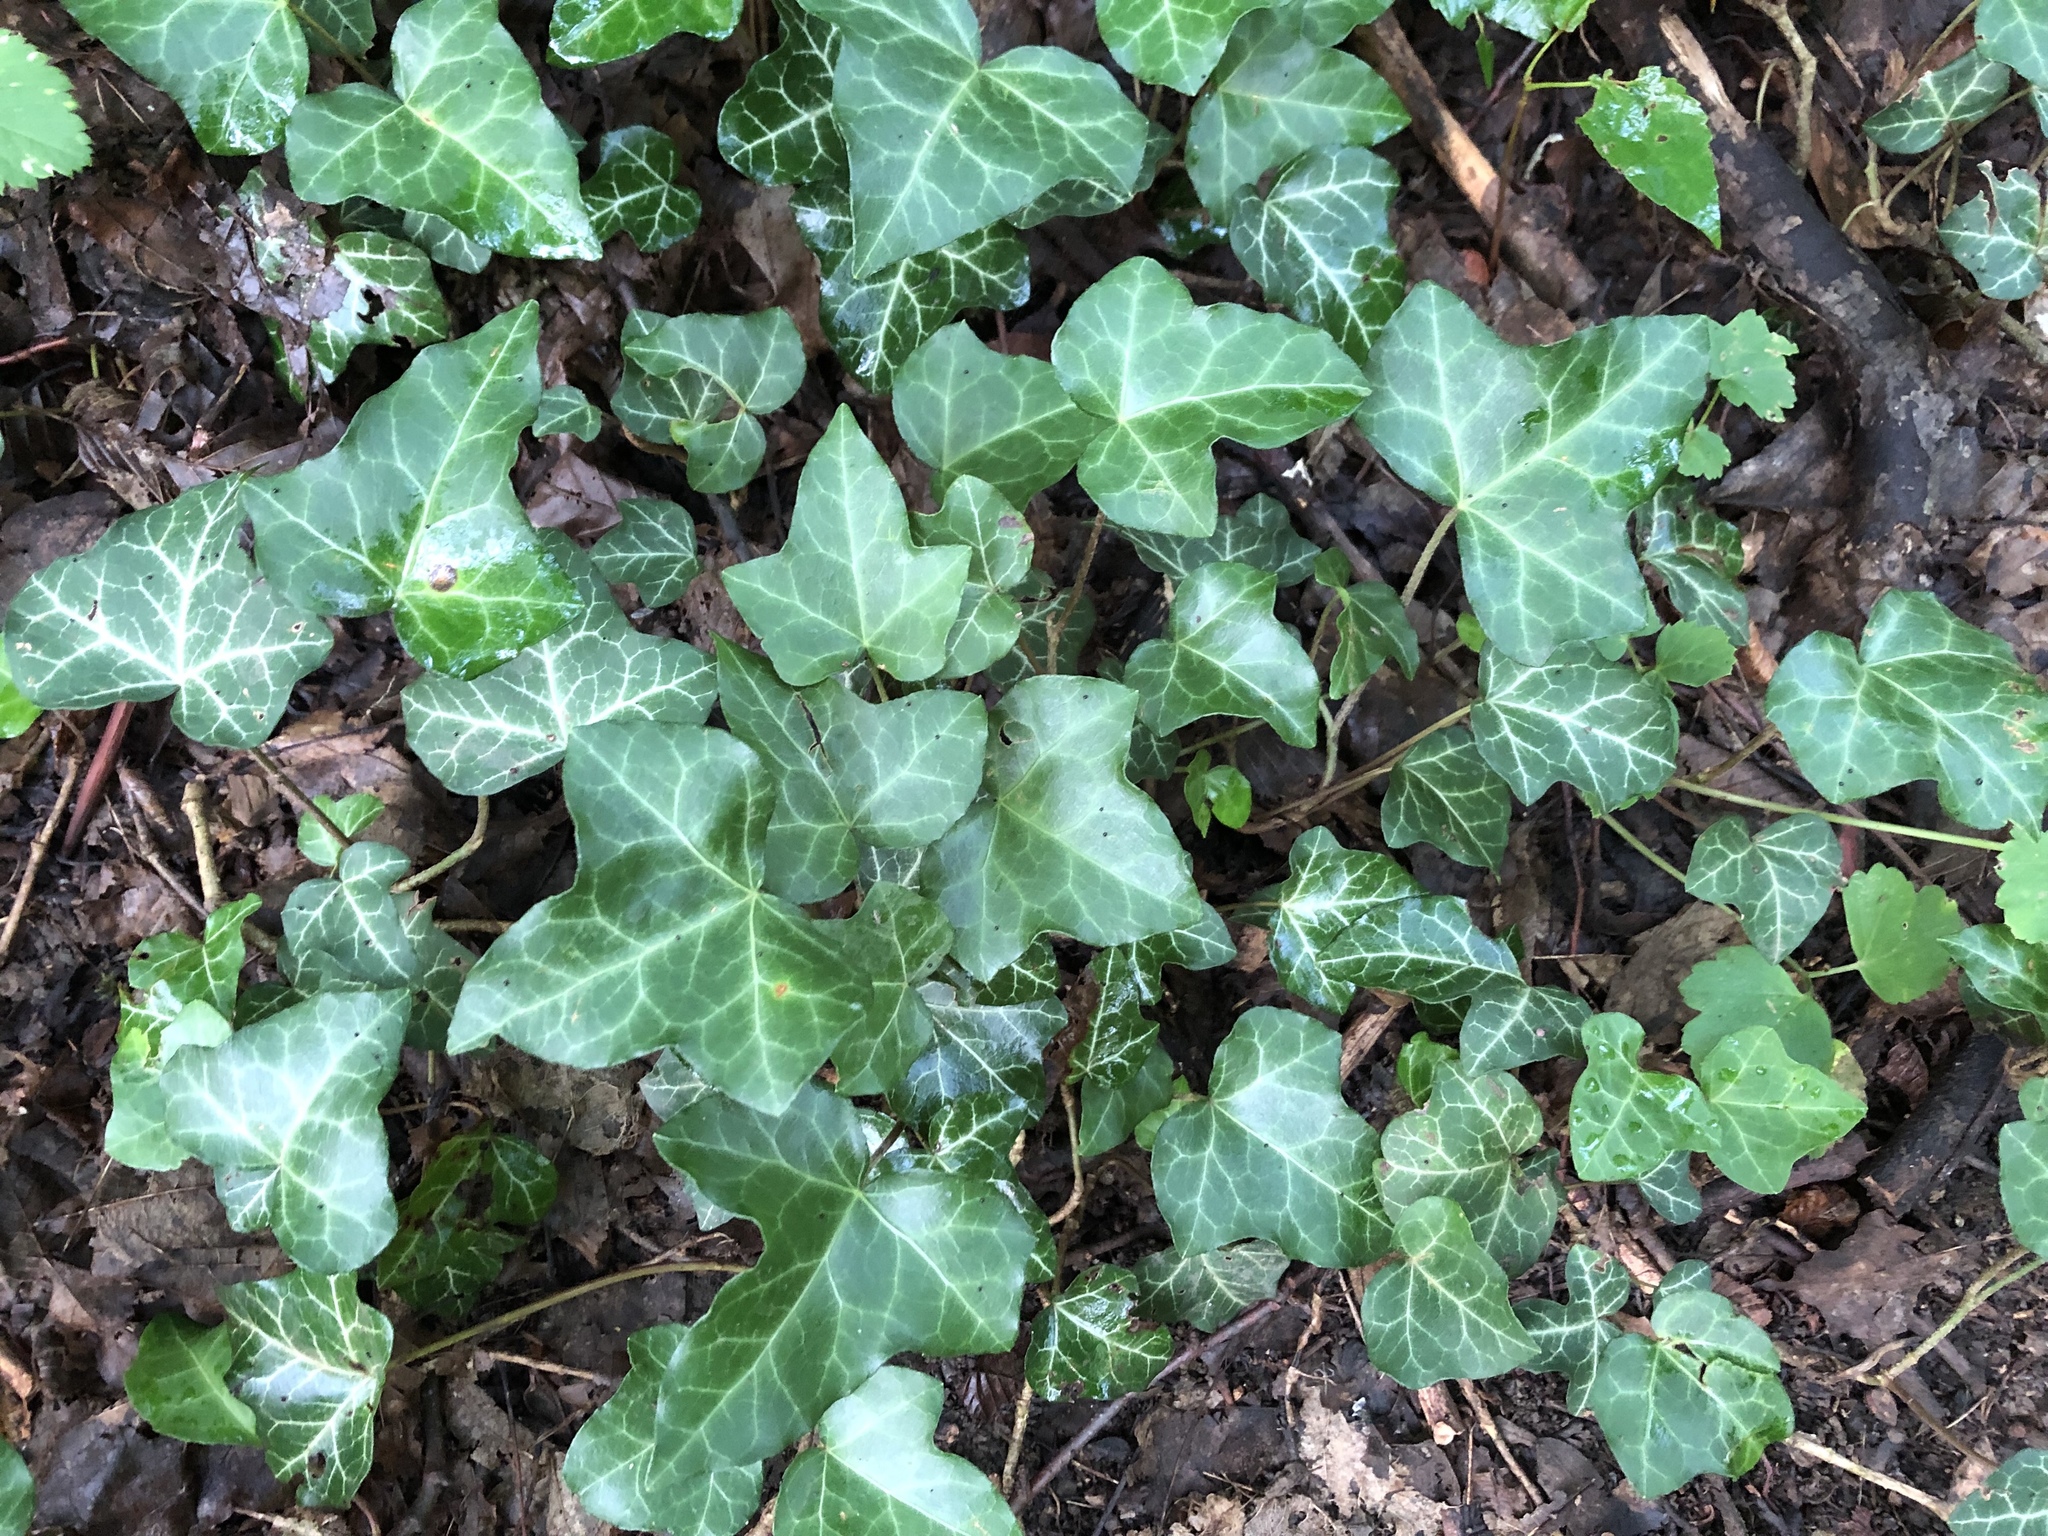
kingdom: Plantae
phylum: Tracheophyta
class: Magnoliopsida
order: Apiales
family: Araliaceae
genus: Hedera
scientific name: Hedera helix
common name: Ivy
